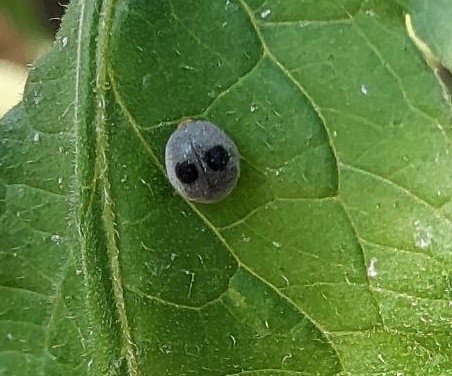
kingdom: Animalia
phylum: Arthropoda
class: Insecta
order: Coleoptera
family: Coccinellidae
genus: Azya
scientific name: Azya
